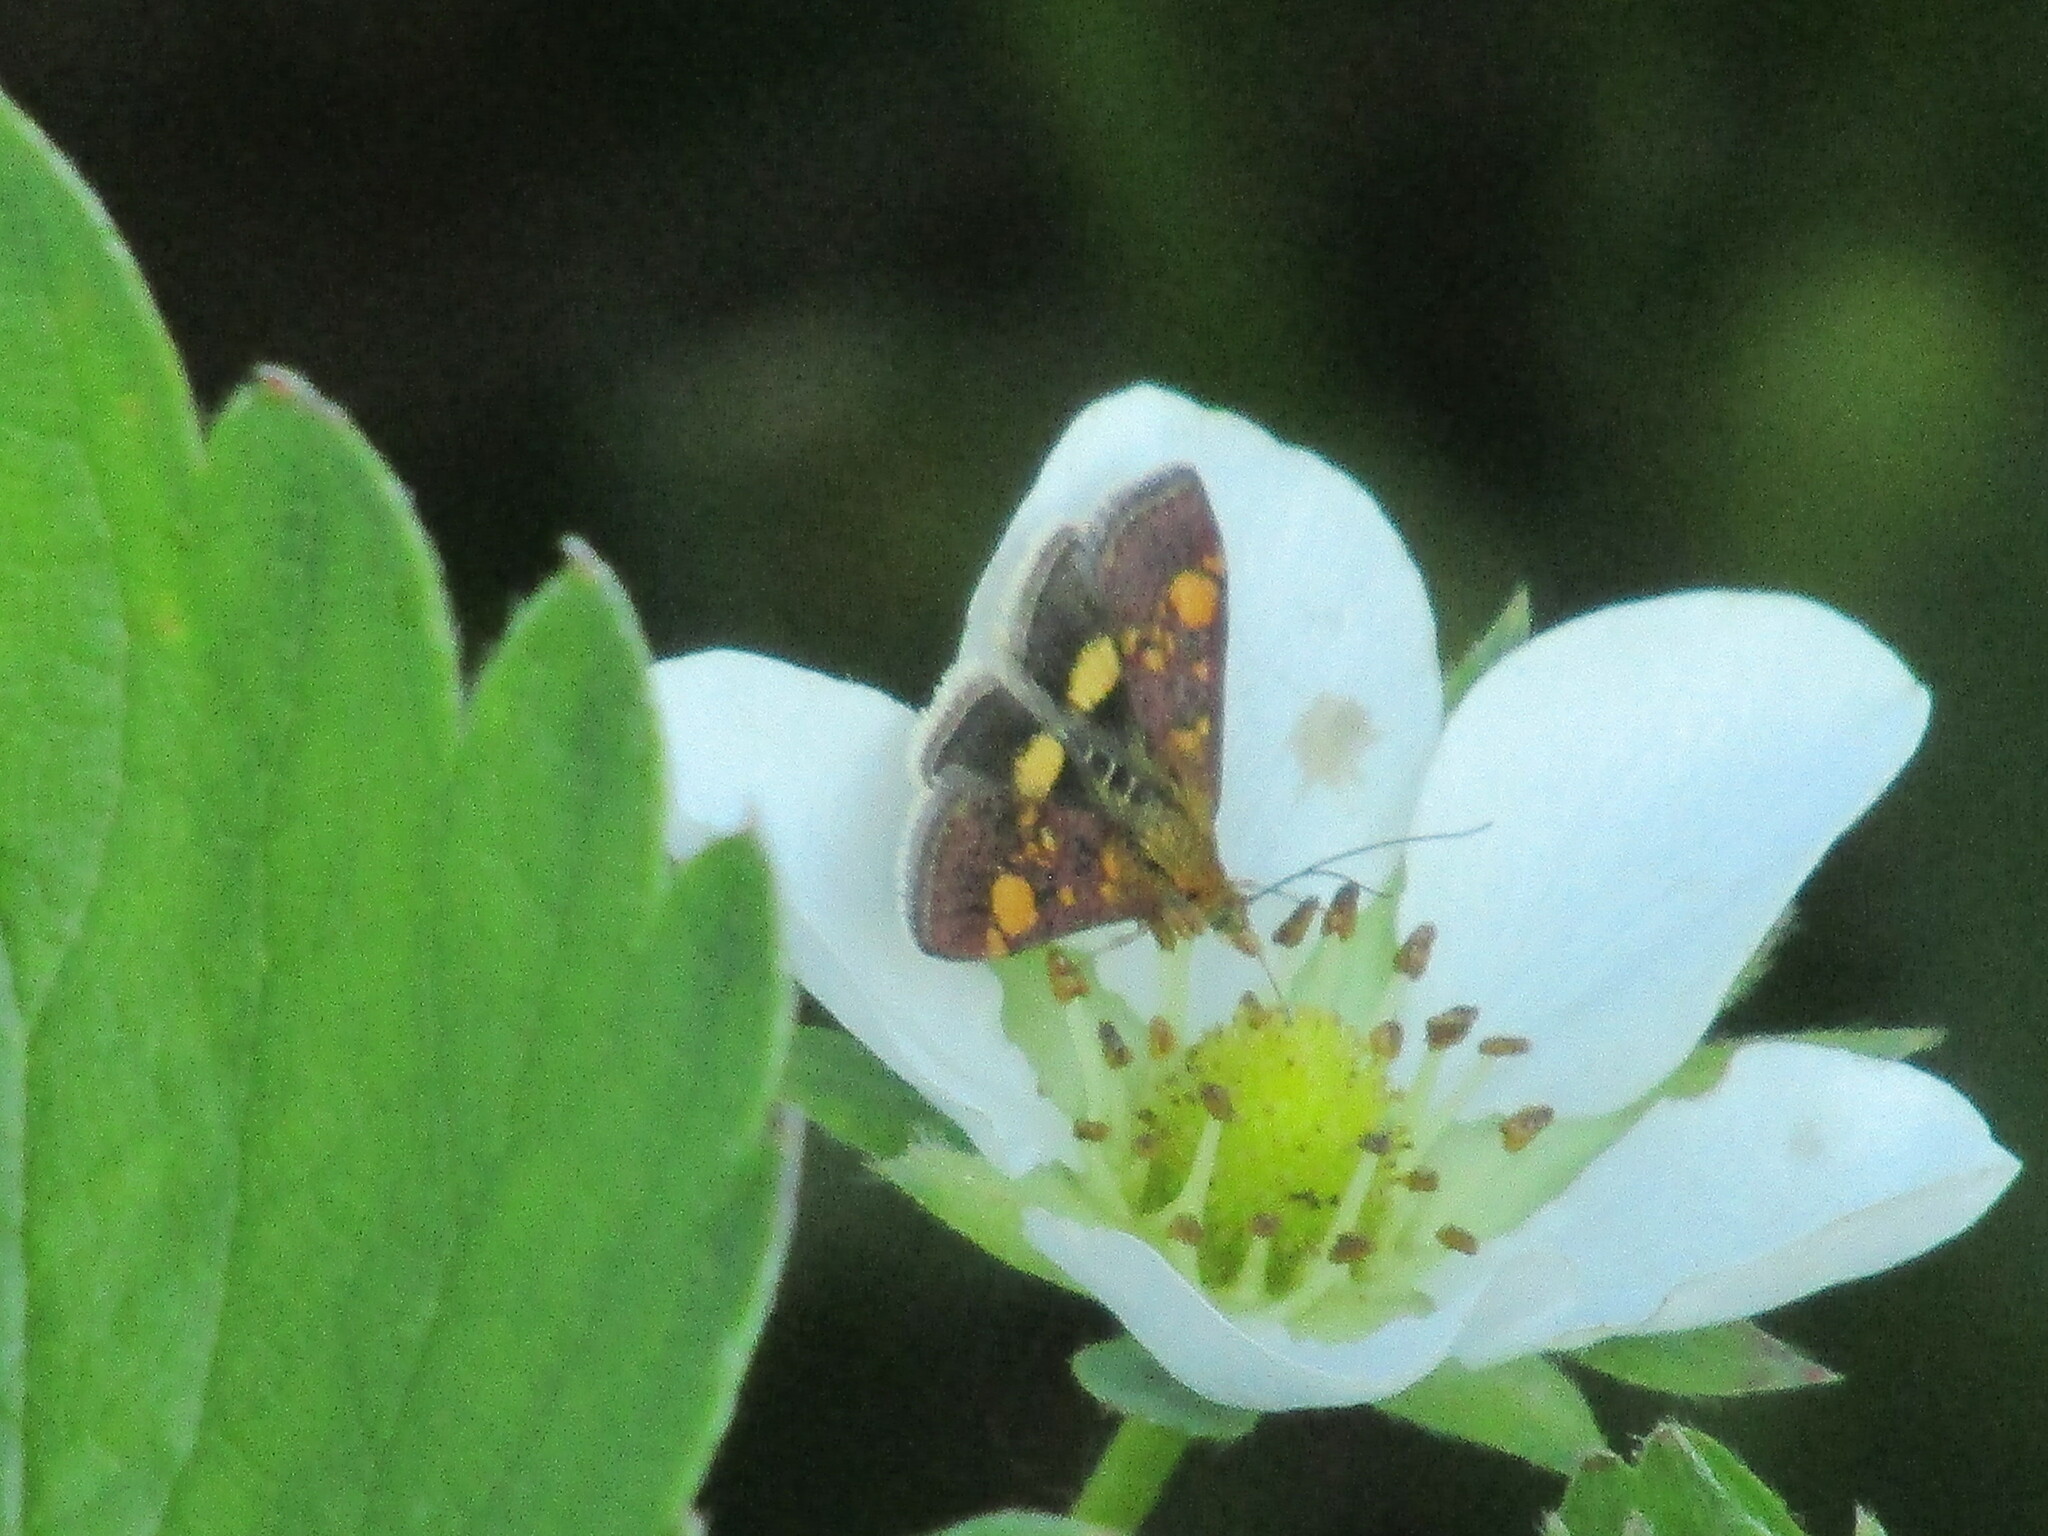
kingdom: Animalia
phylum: Arthropoda
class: Insecta
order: Lepidoptera
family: Crambidae
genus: Pyrausta
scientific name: Pyrausta aurata
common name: Small purple & gold
